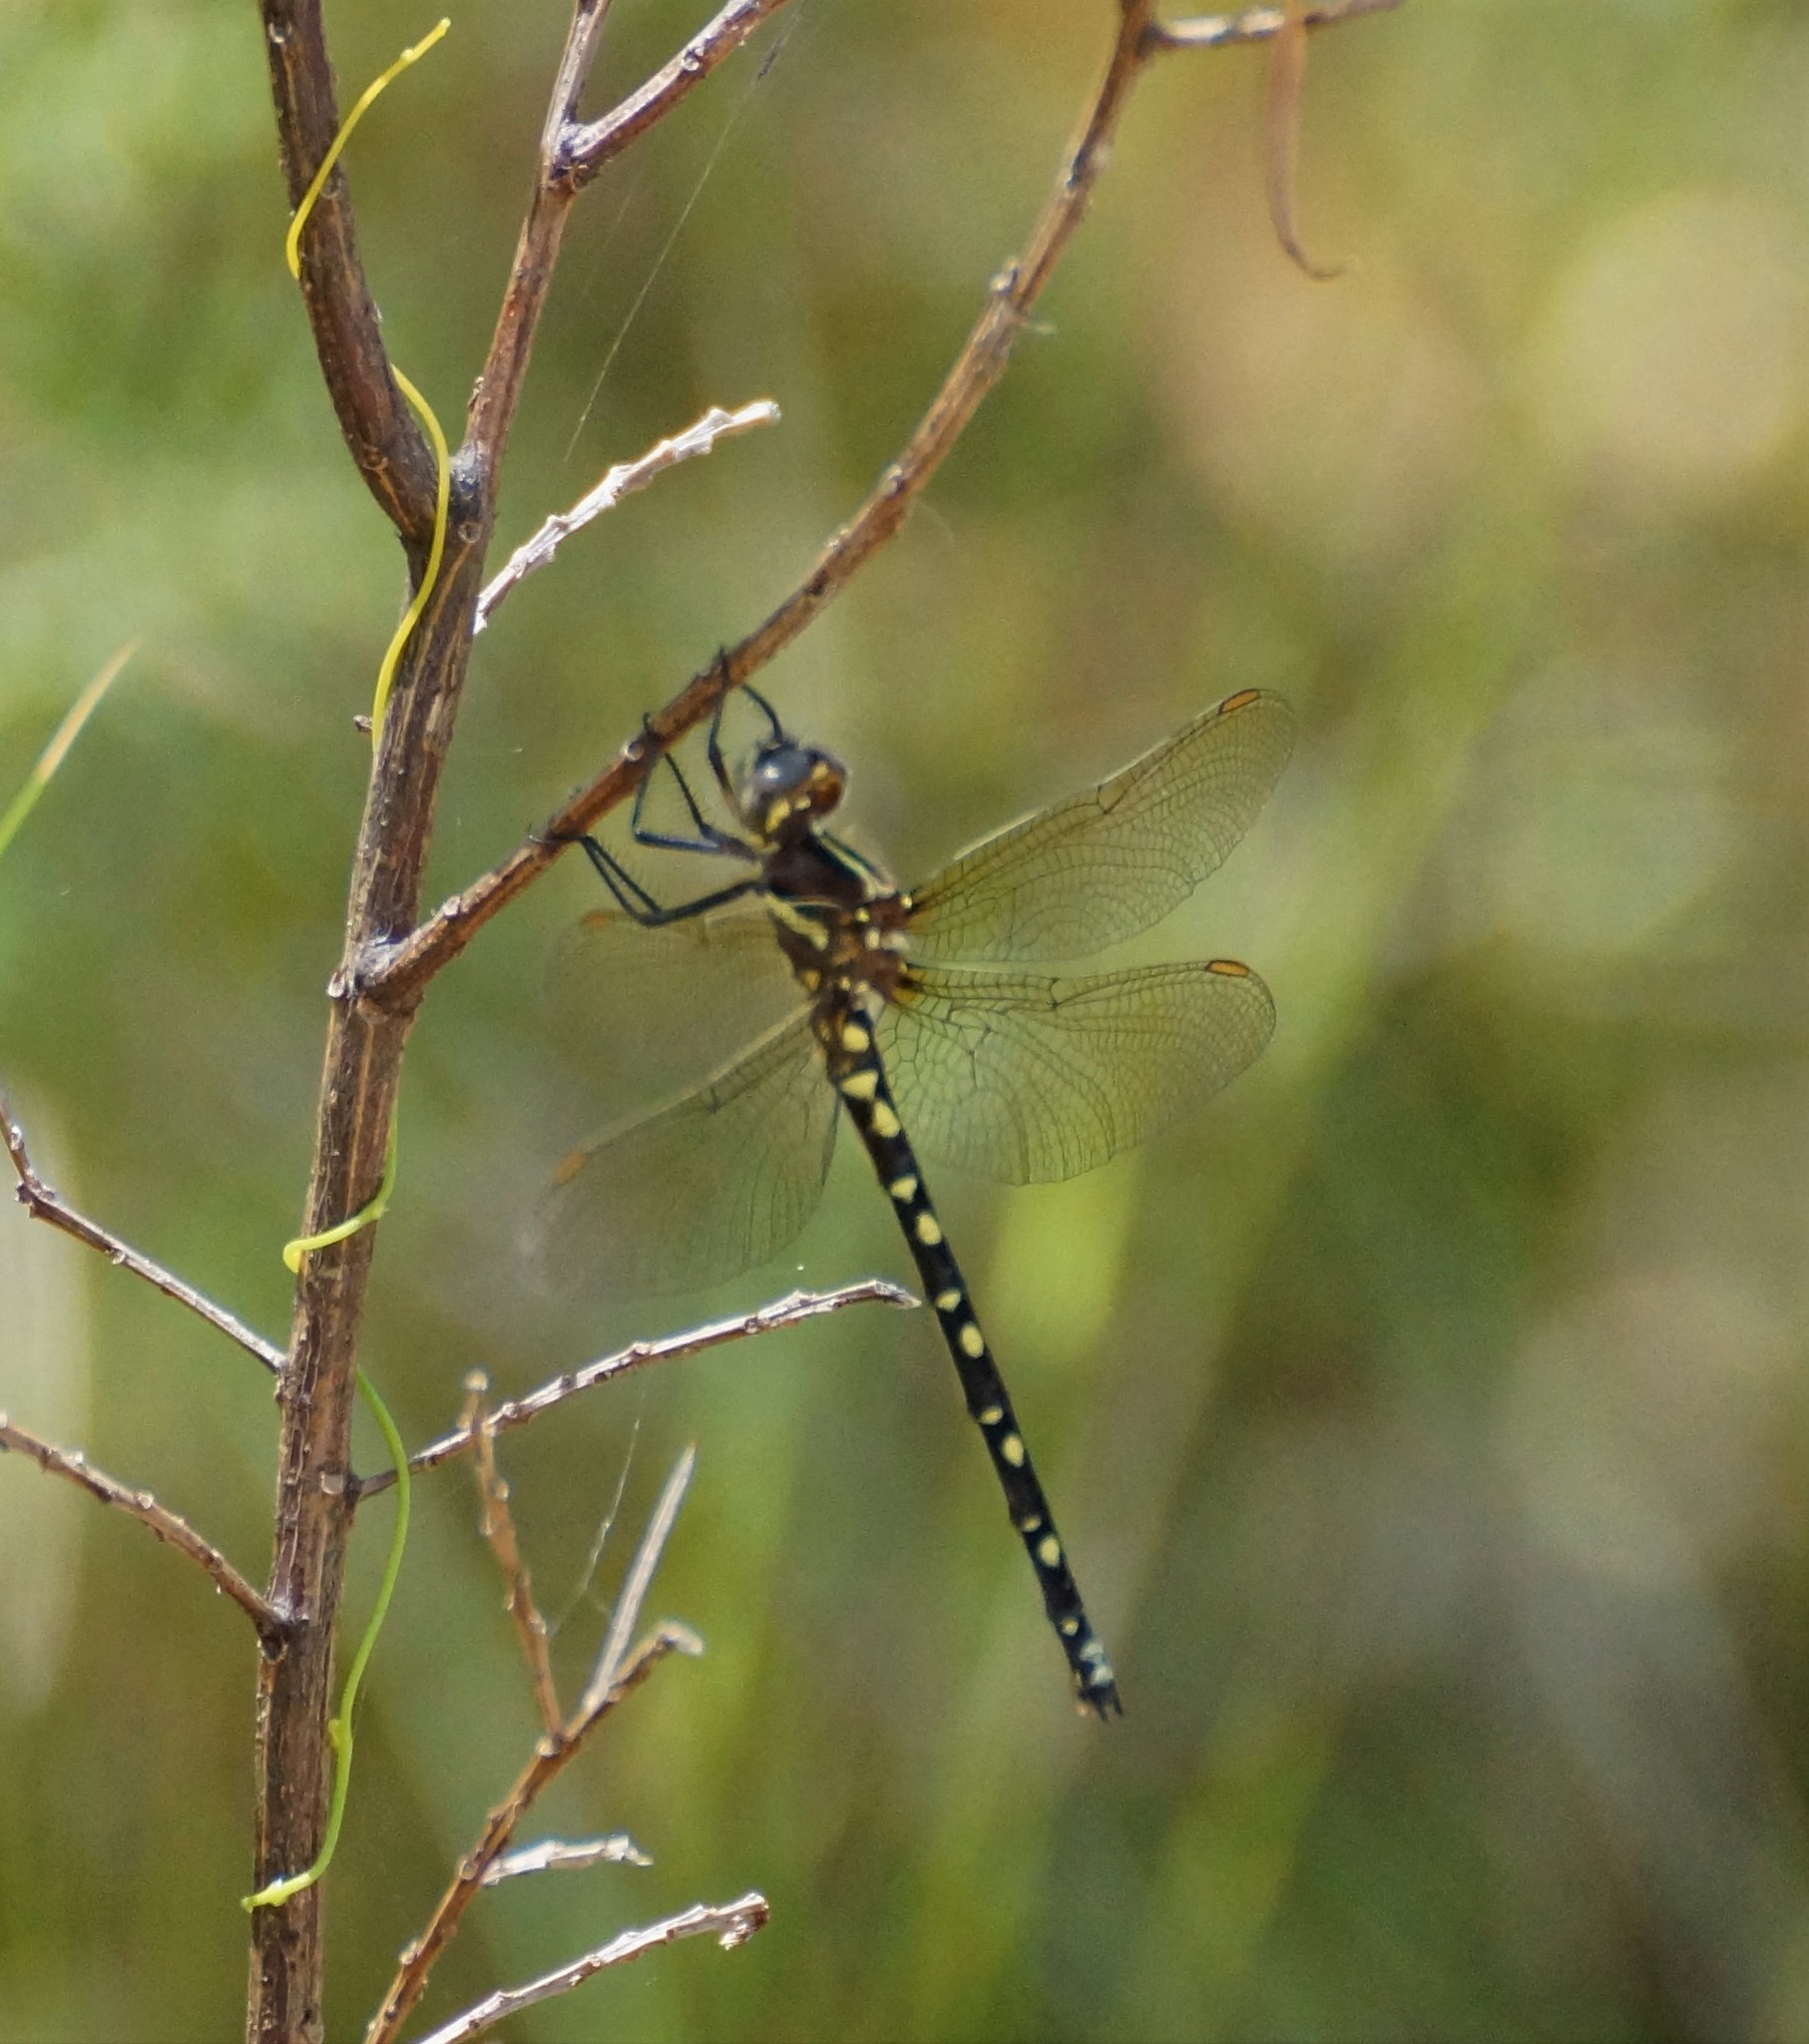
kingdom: Animalia
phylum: Arthropoda
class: Insecta
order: Odonata
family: Synthemistidae
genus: Synthemis
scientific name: Synthemis eustalacta
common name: Swamp tigertail
